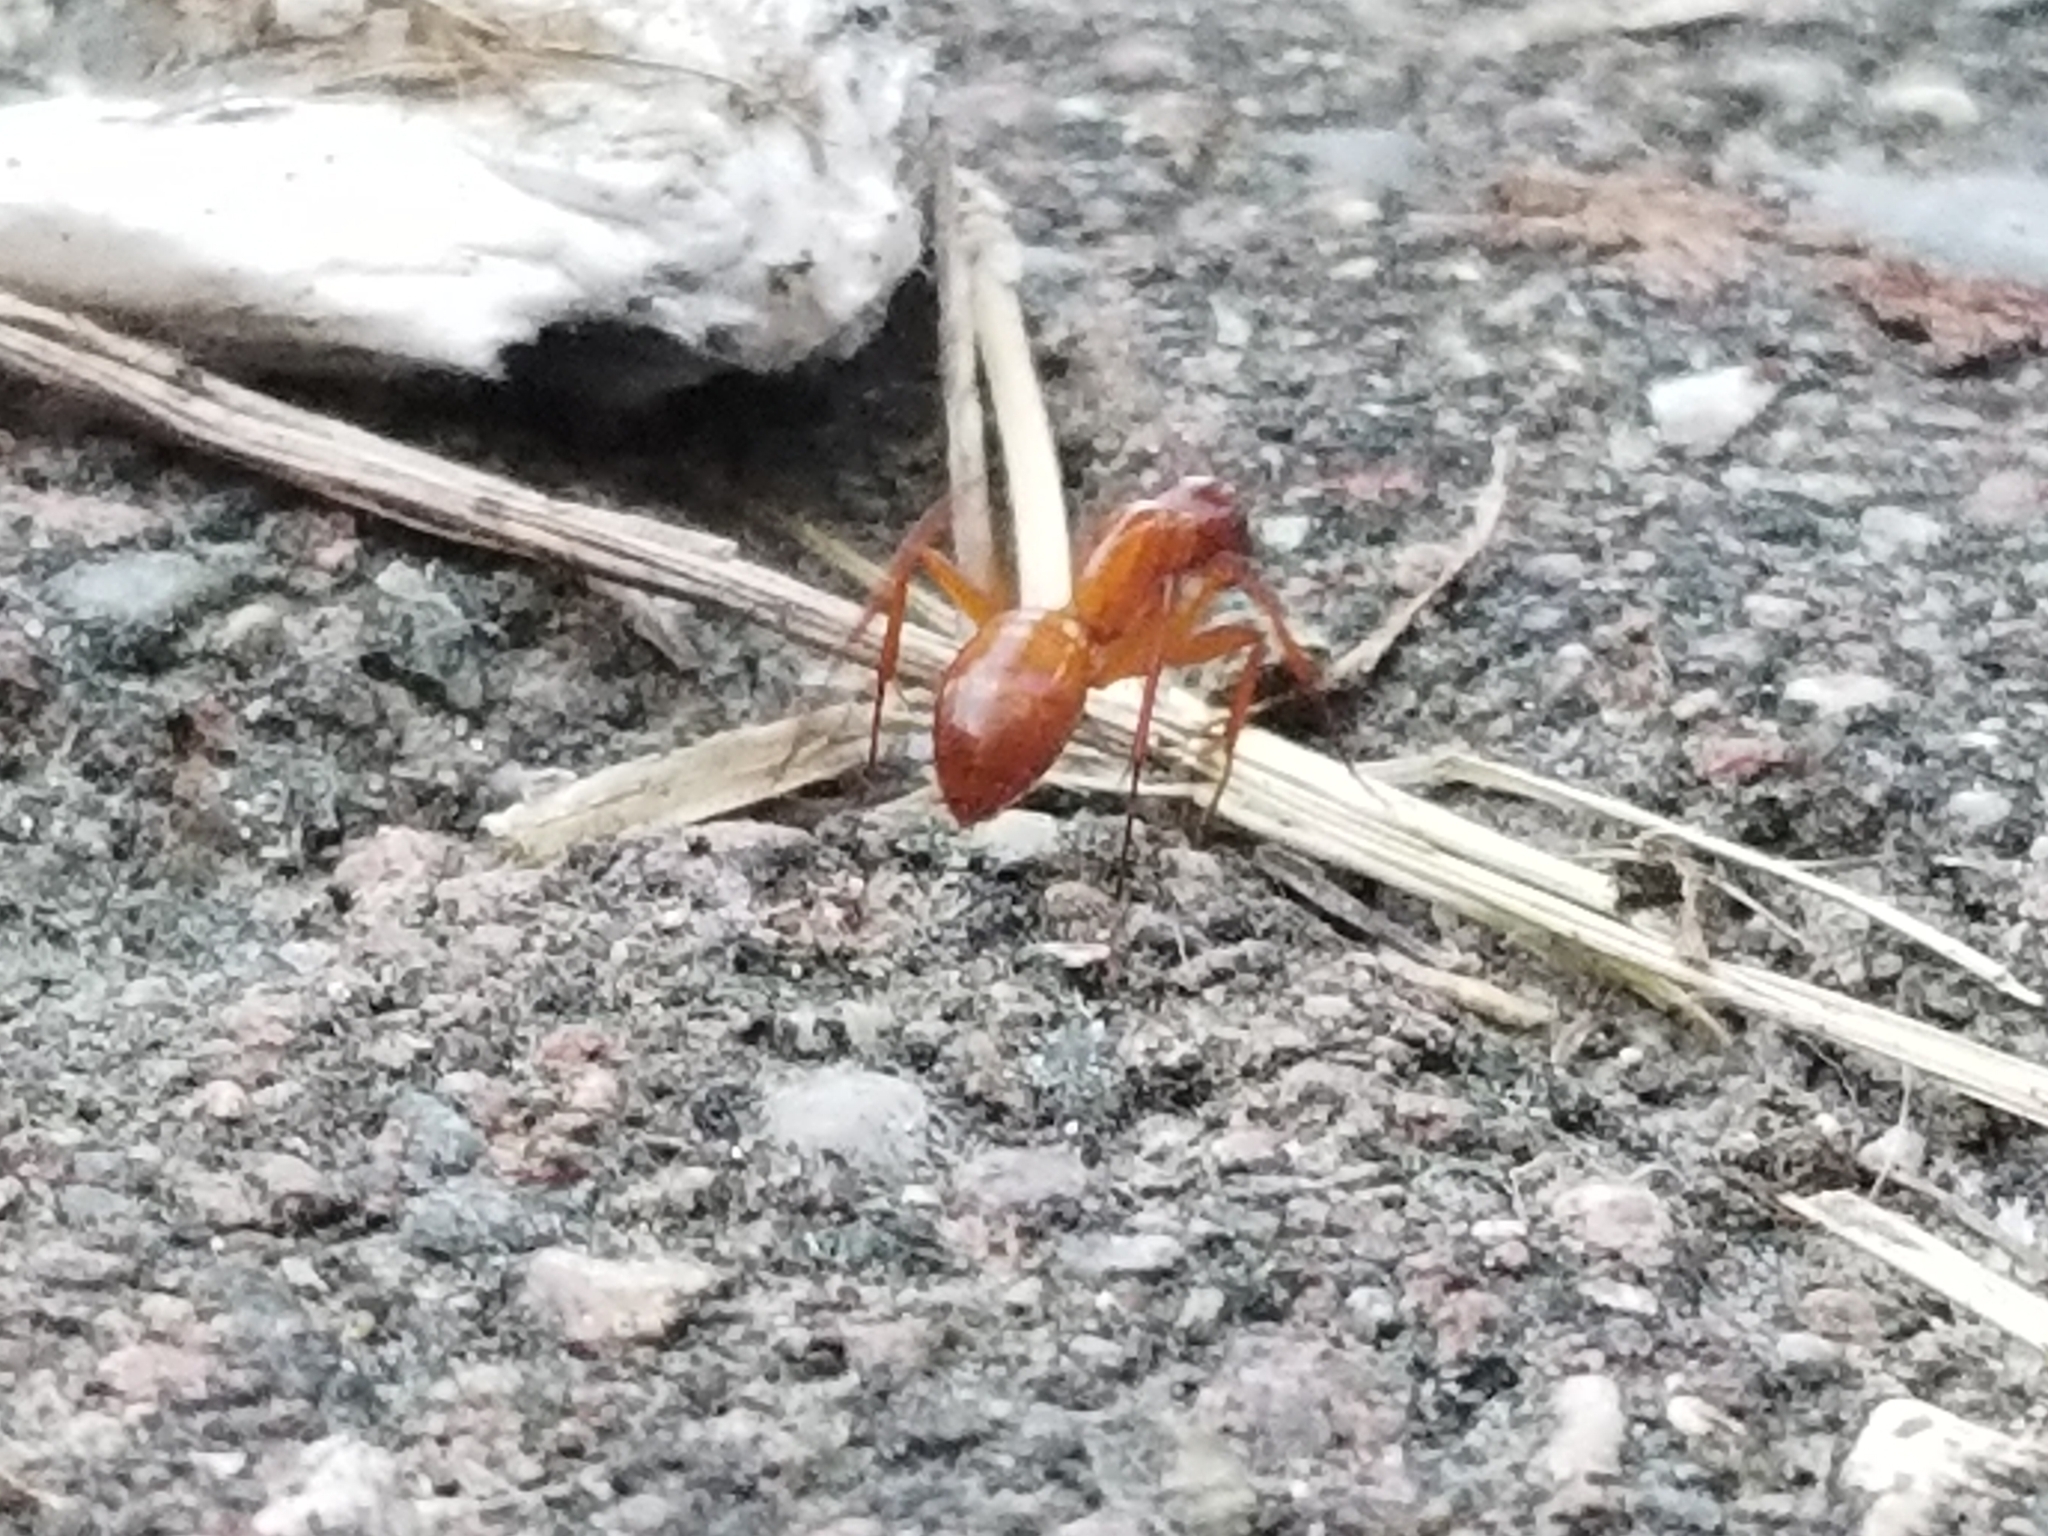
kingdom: Animalia
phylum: Arthropoda
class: Insecta
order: Hymenoptera
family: Formicidae
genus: Camponotus
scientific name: Camponotus castaneus
